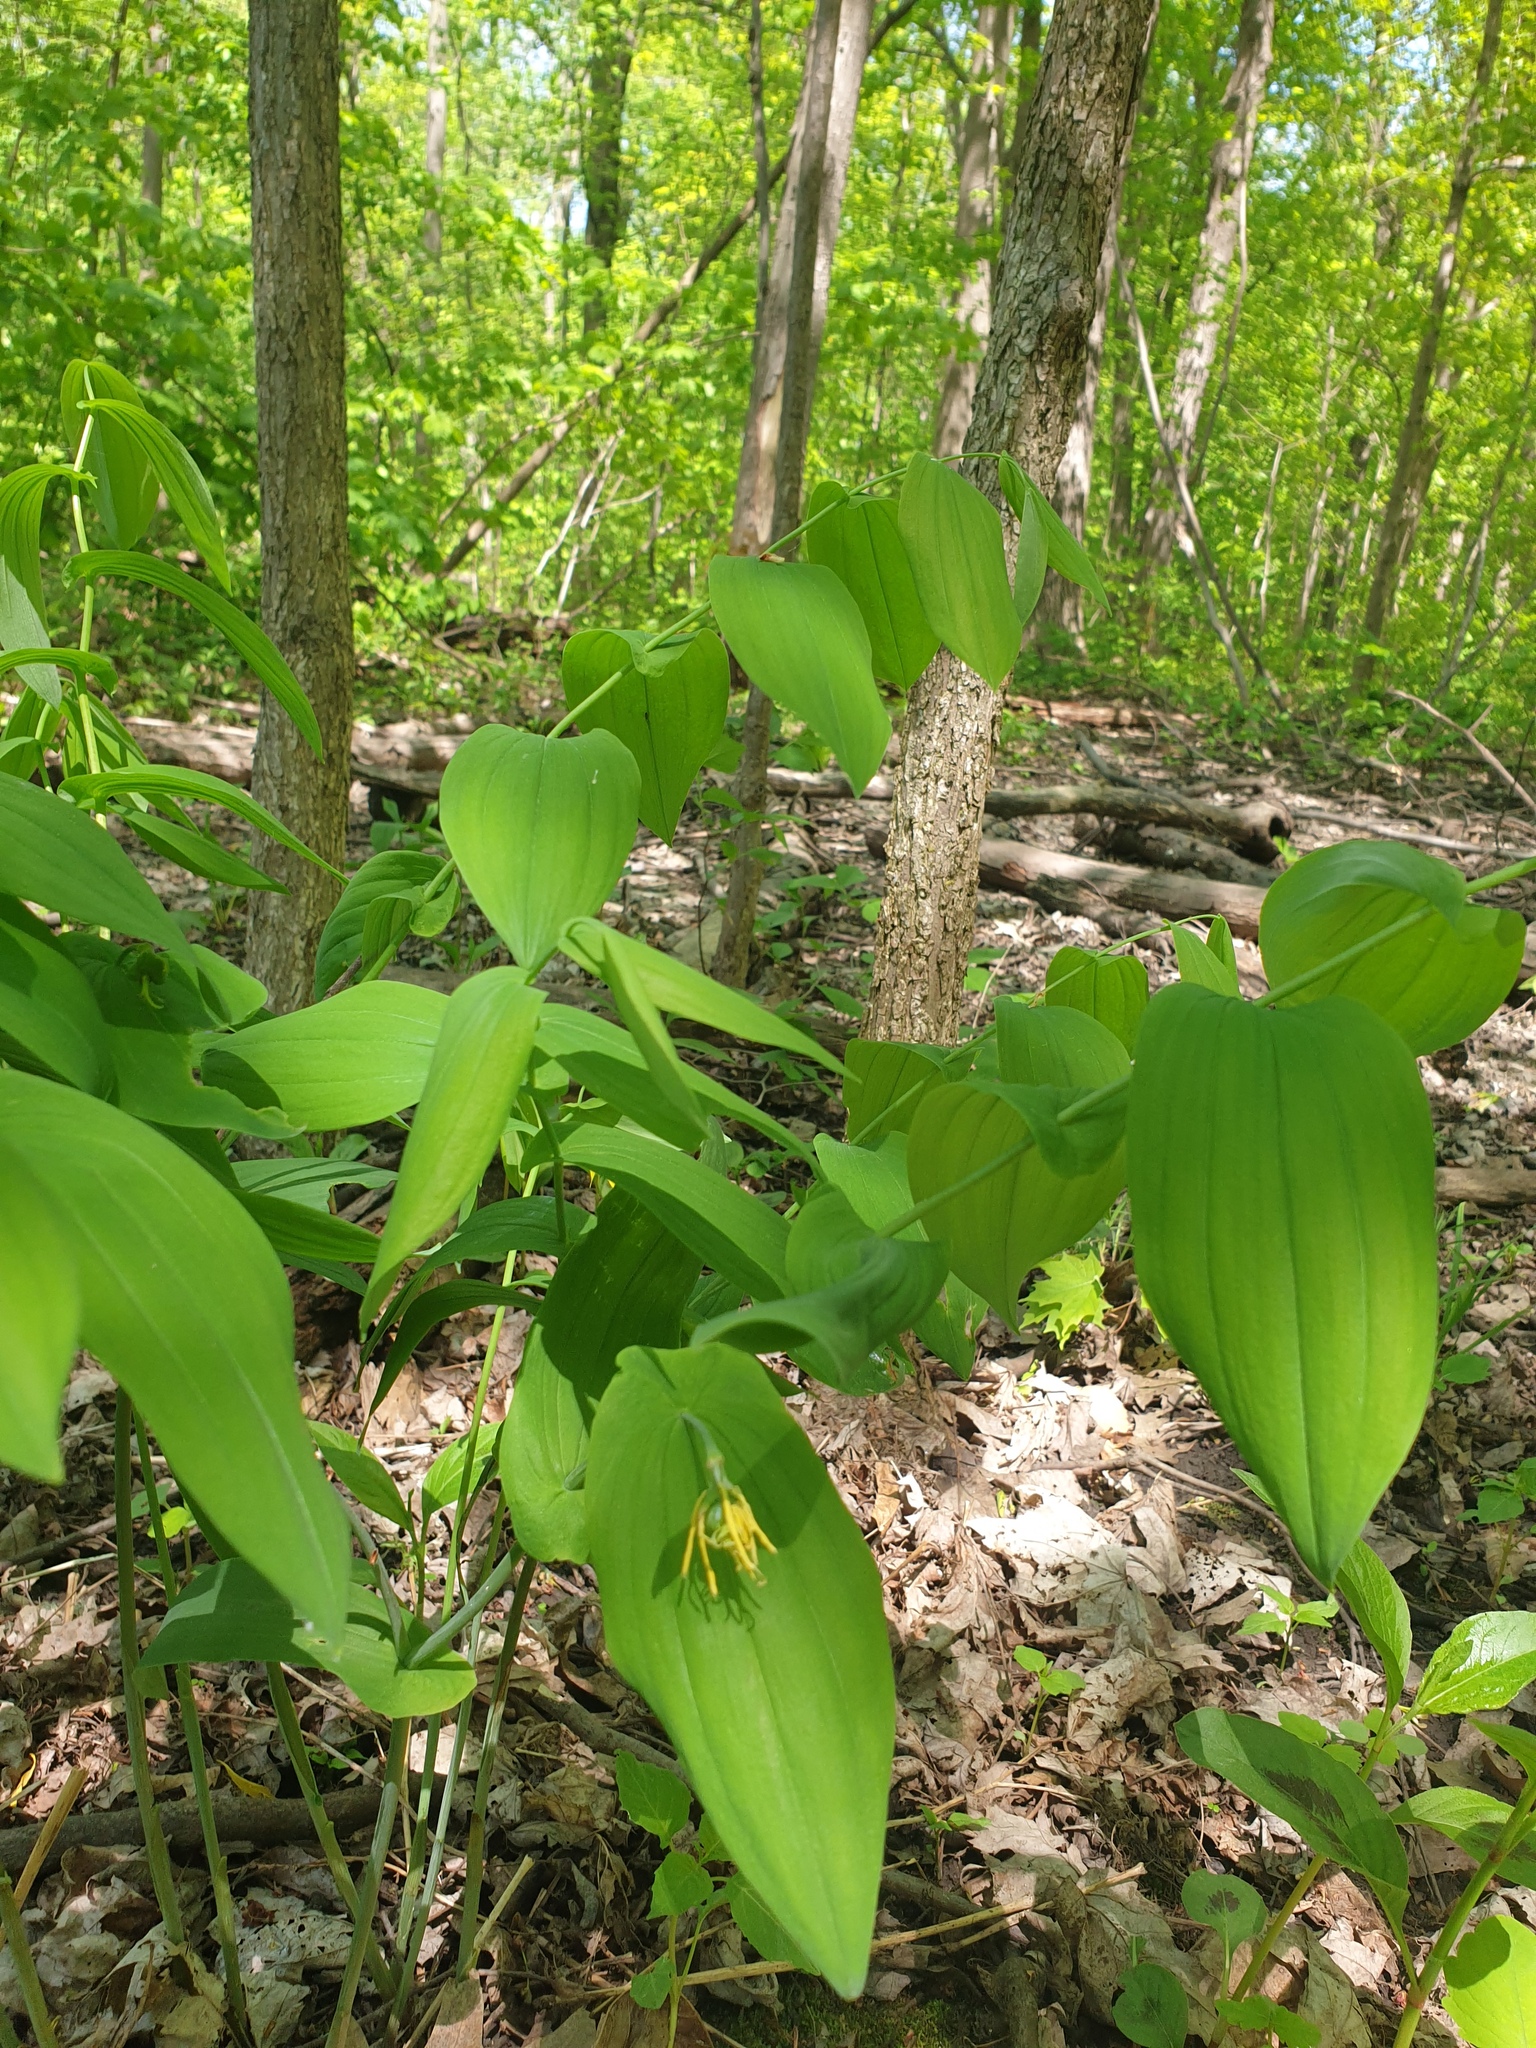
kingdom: Plantae
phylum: Tracheophyta
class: Liliopsida
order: Liliales
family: Colchicaceae
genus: Uvularia
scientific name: Uvularia grandiflora
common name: Bellwort
